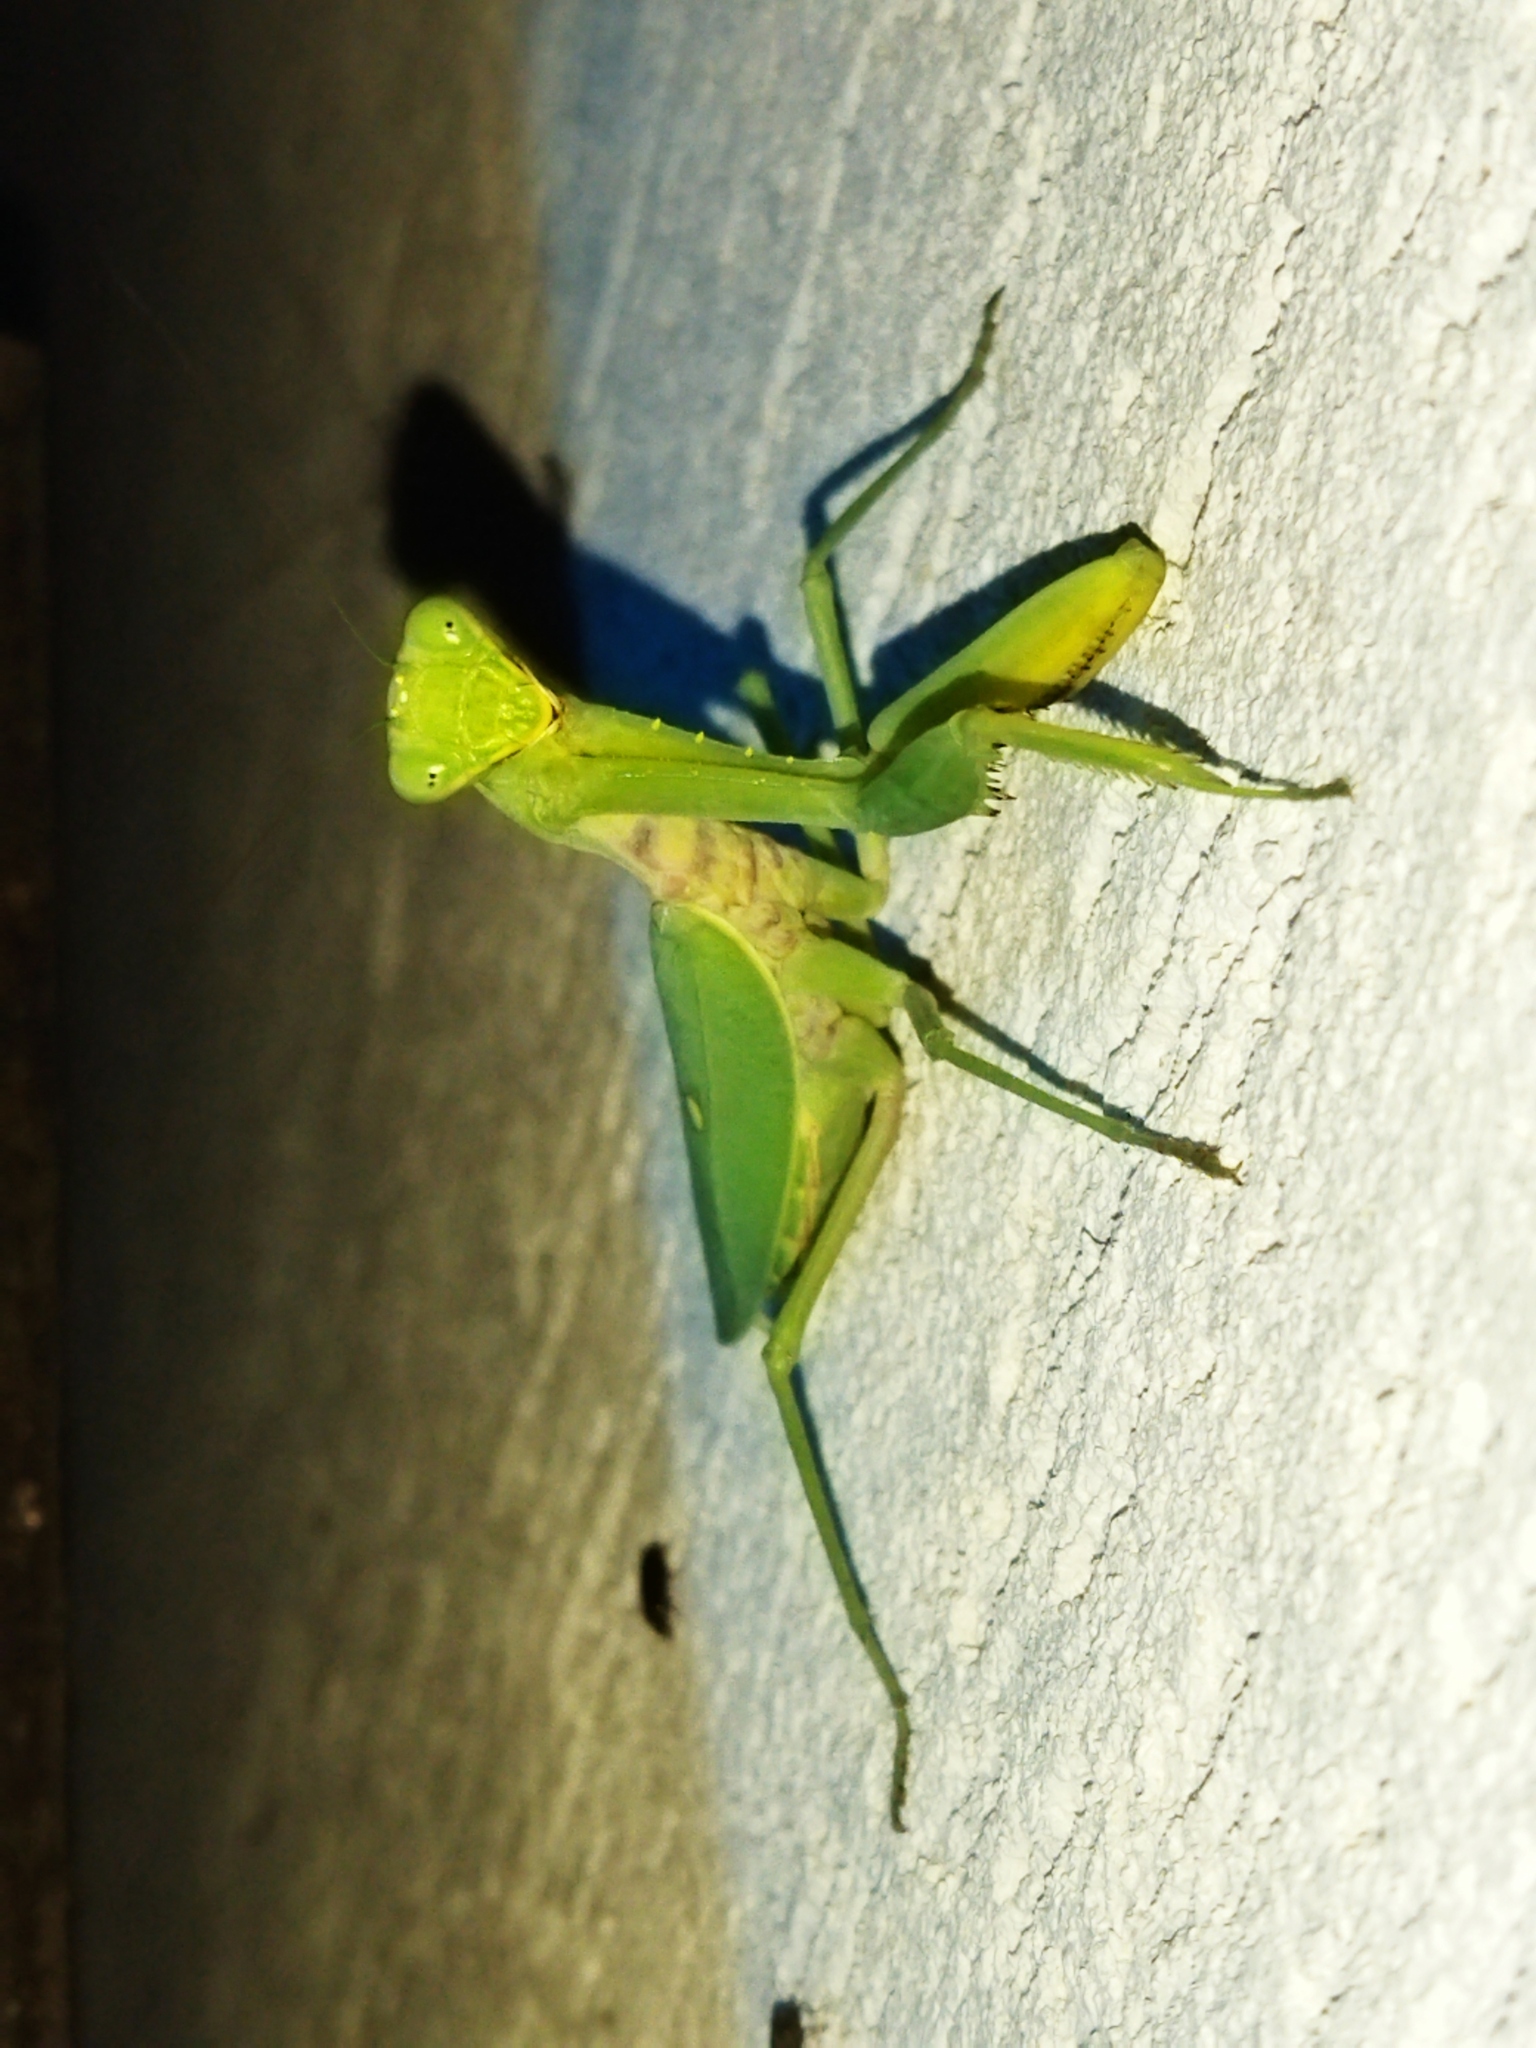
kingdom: Animalia
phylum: Arthropoda
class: Insecta
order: Mantodea
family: Mantidae
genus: Hierodula
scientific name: Hierodula transcaucasica
